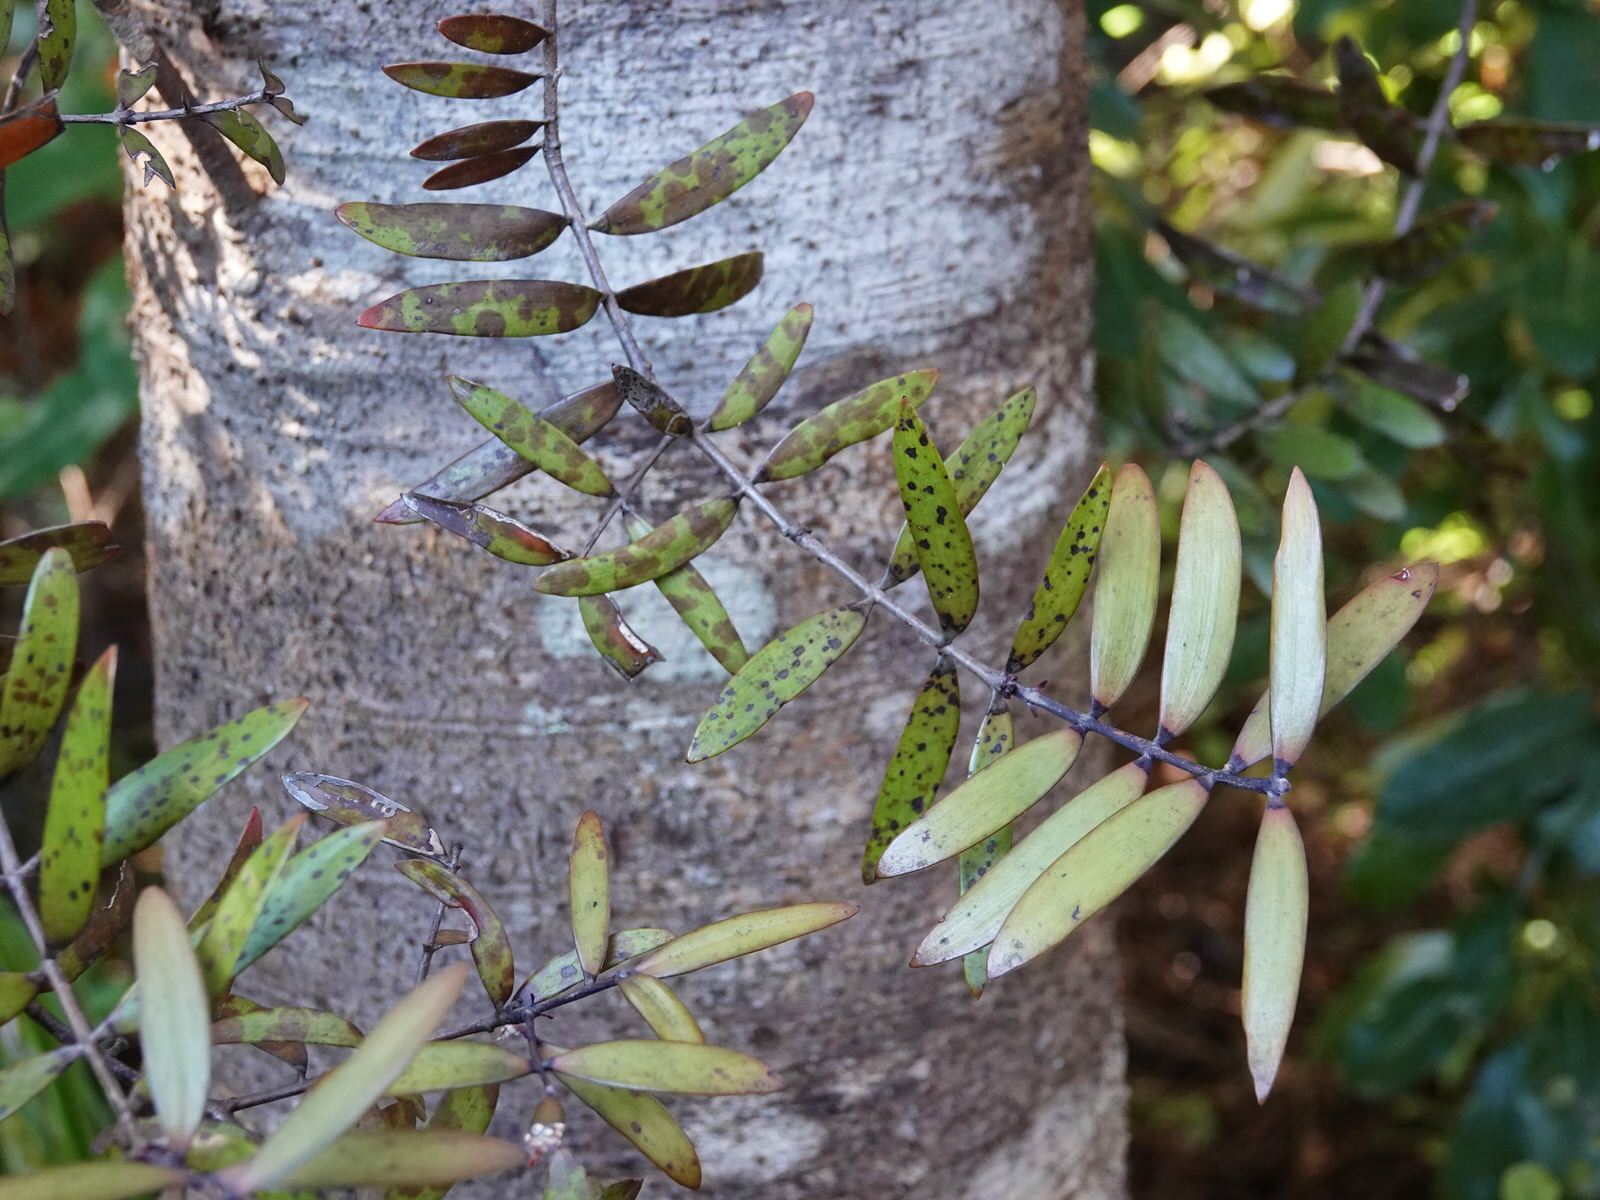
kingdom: Plantae
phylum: Tracheophyta
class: Pinopsida
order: Pinales
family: Araucariaceae
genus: Agathis
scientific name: Agathis australis
